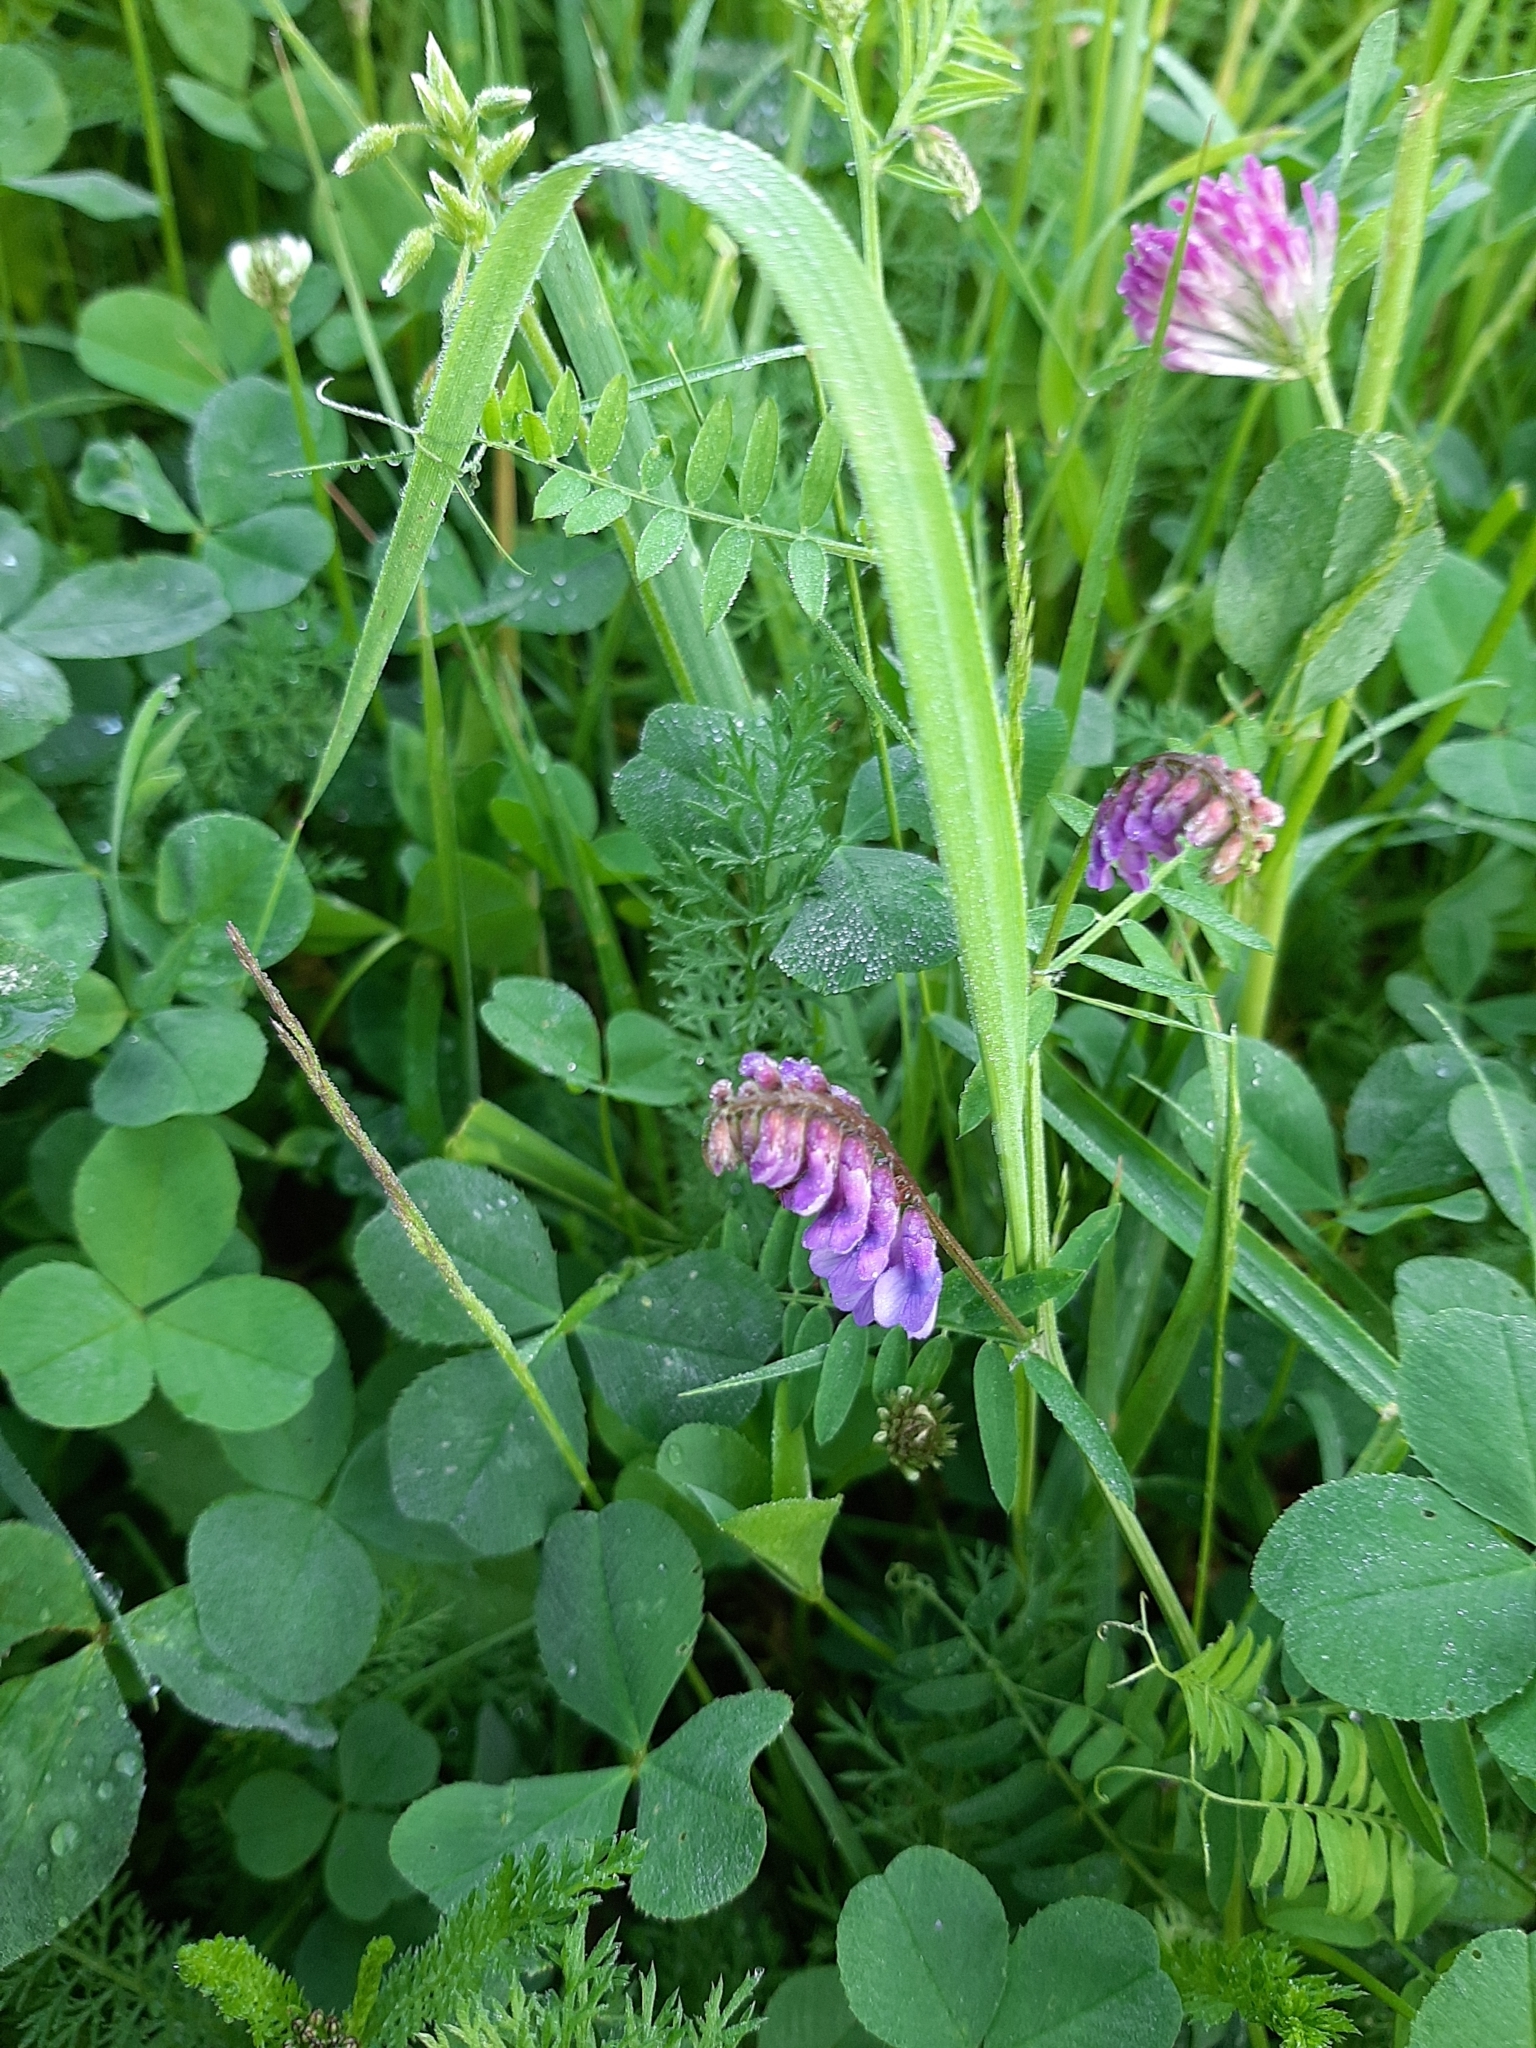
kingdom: Plantae
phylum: Tracheophyta
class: Magnoliopsida
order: Fabales
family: Fabaceae
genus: Vicia
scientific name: Vicia cracca
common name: Bird vetch
